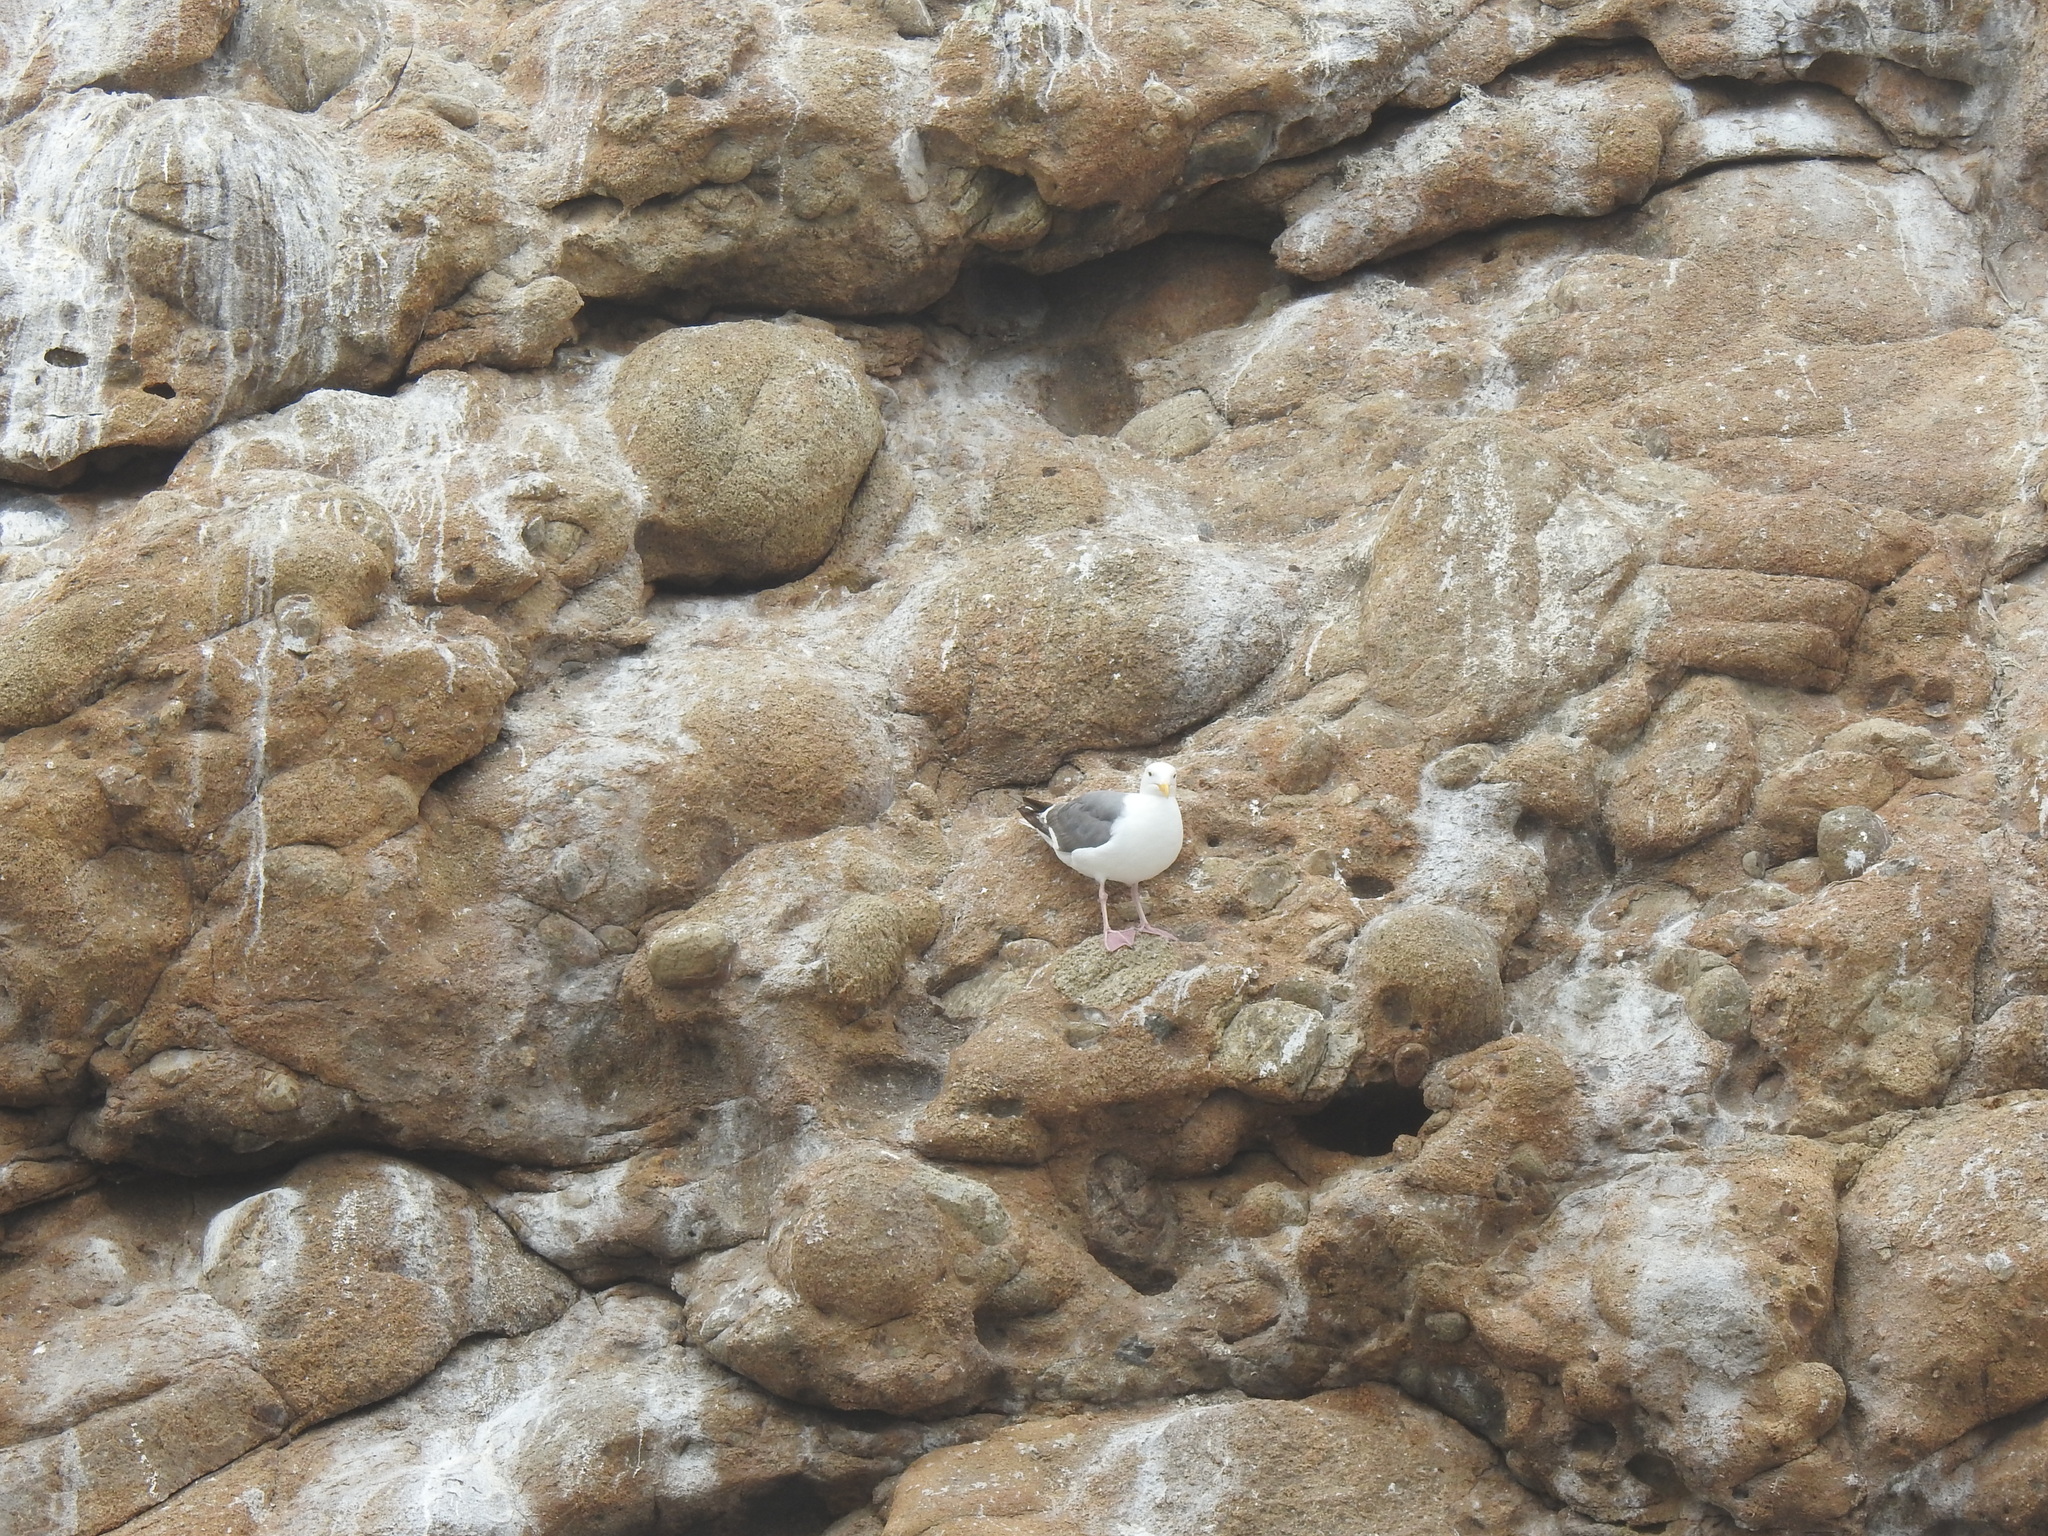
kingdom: Animalia
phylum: Chordata
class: Aves
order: Charadriiformes
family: Laridae
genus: Larus
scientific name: Larus occidentalis
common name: Western gull
